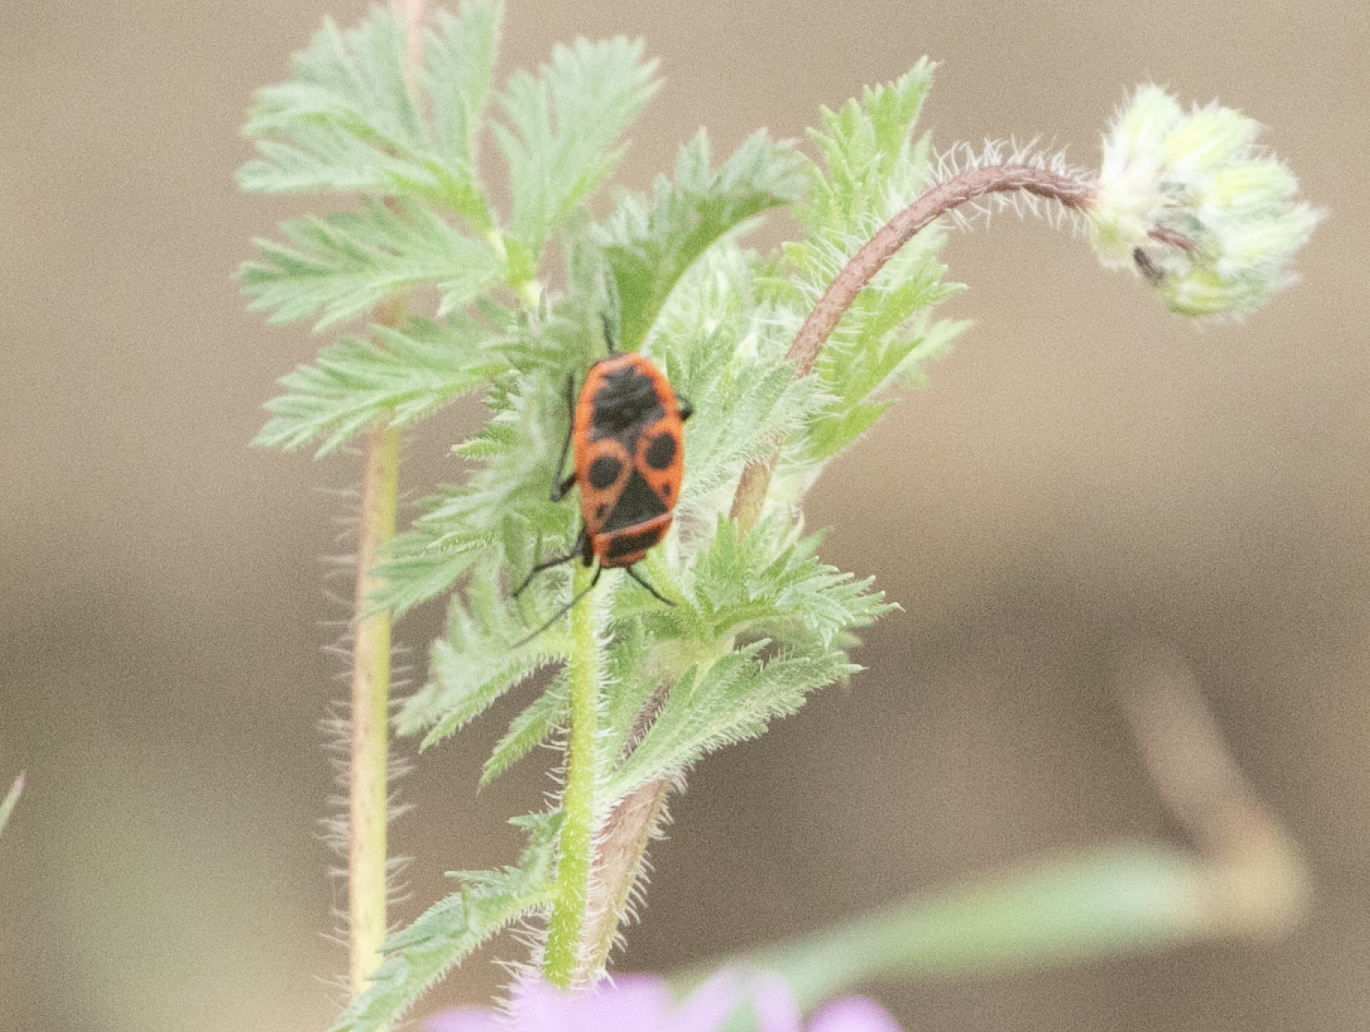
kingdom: Animalia
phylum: Arthropoda
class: Insecta
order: Hemiptera
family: Pyrrhocoridae
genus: Pyrrhocoris
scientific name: Pyrrhocoris apterus
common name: Firebug
